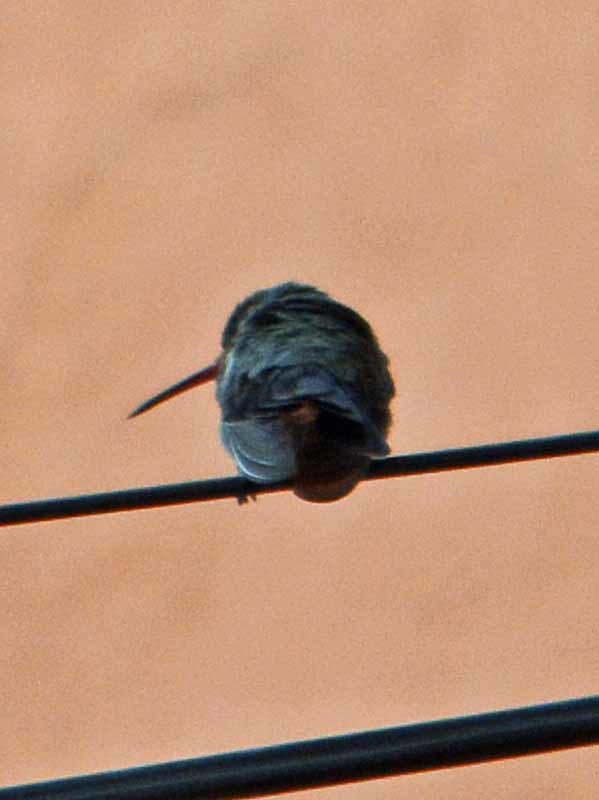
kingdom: Animalia
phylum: Chordata
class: Aves
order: Apodiformes
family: Trochilidae
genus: Cynanthus
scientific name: Cynanthus latirostris
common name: Broad-billed hummingbird
